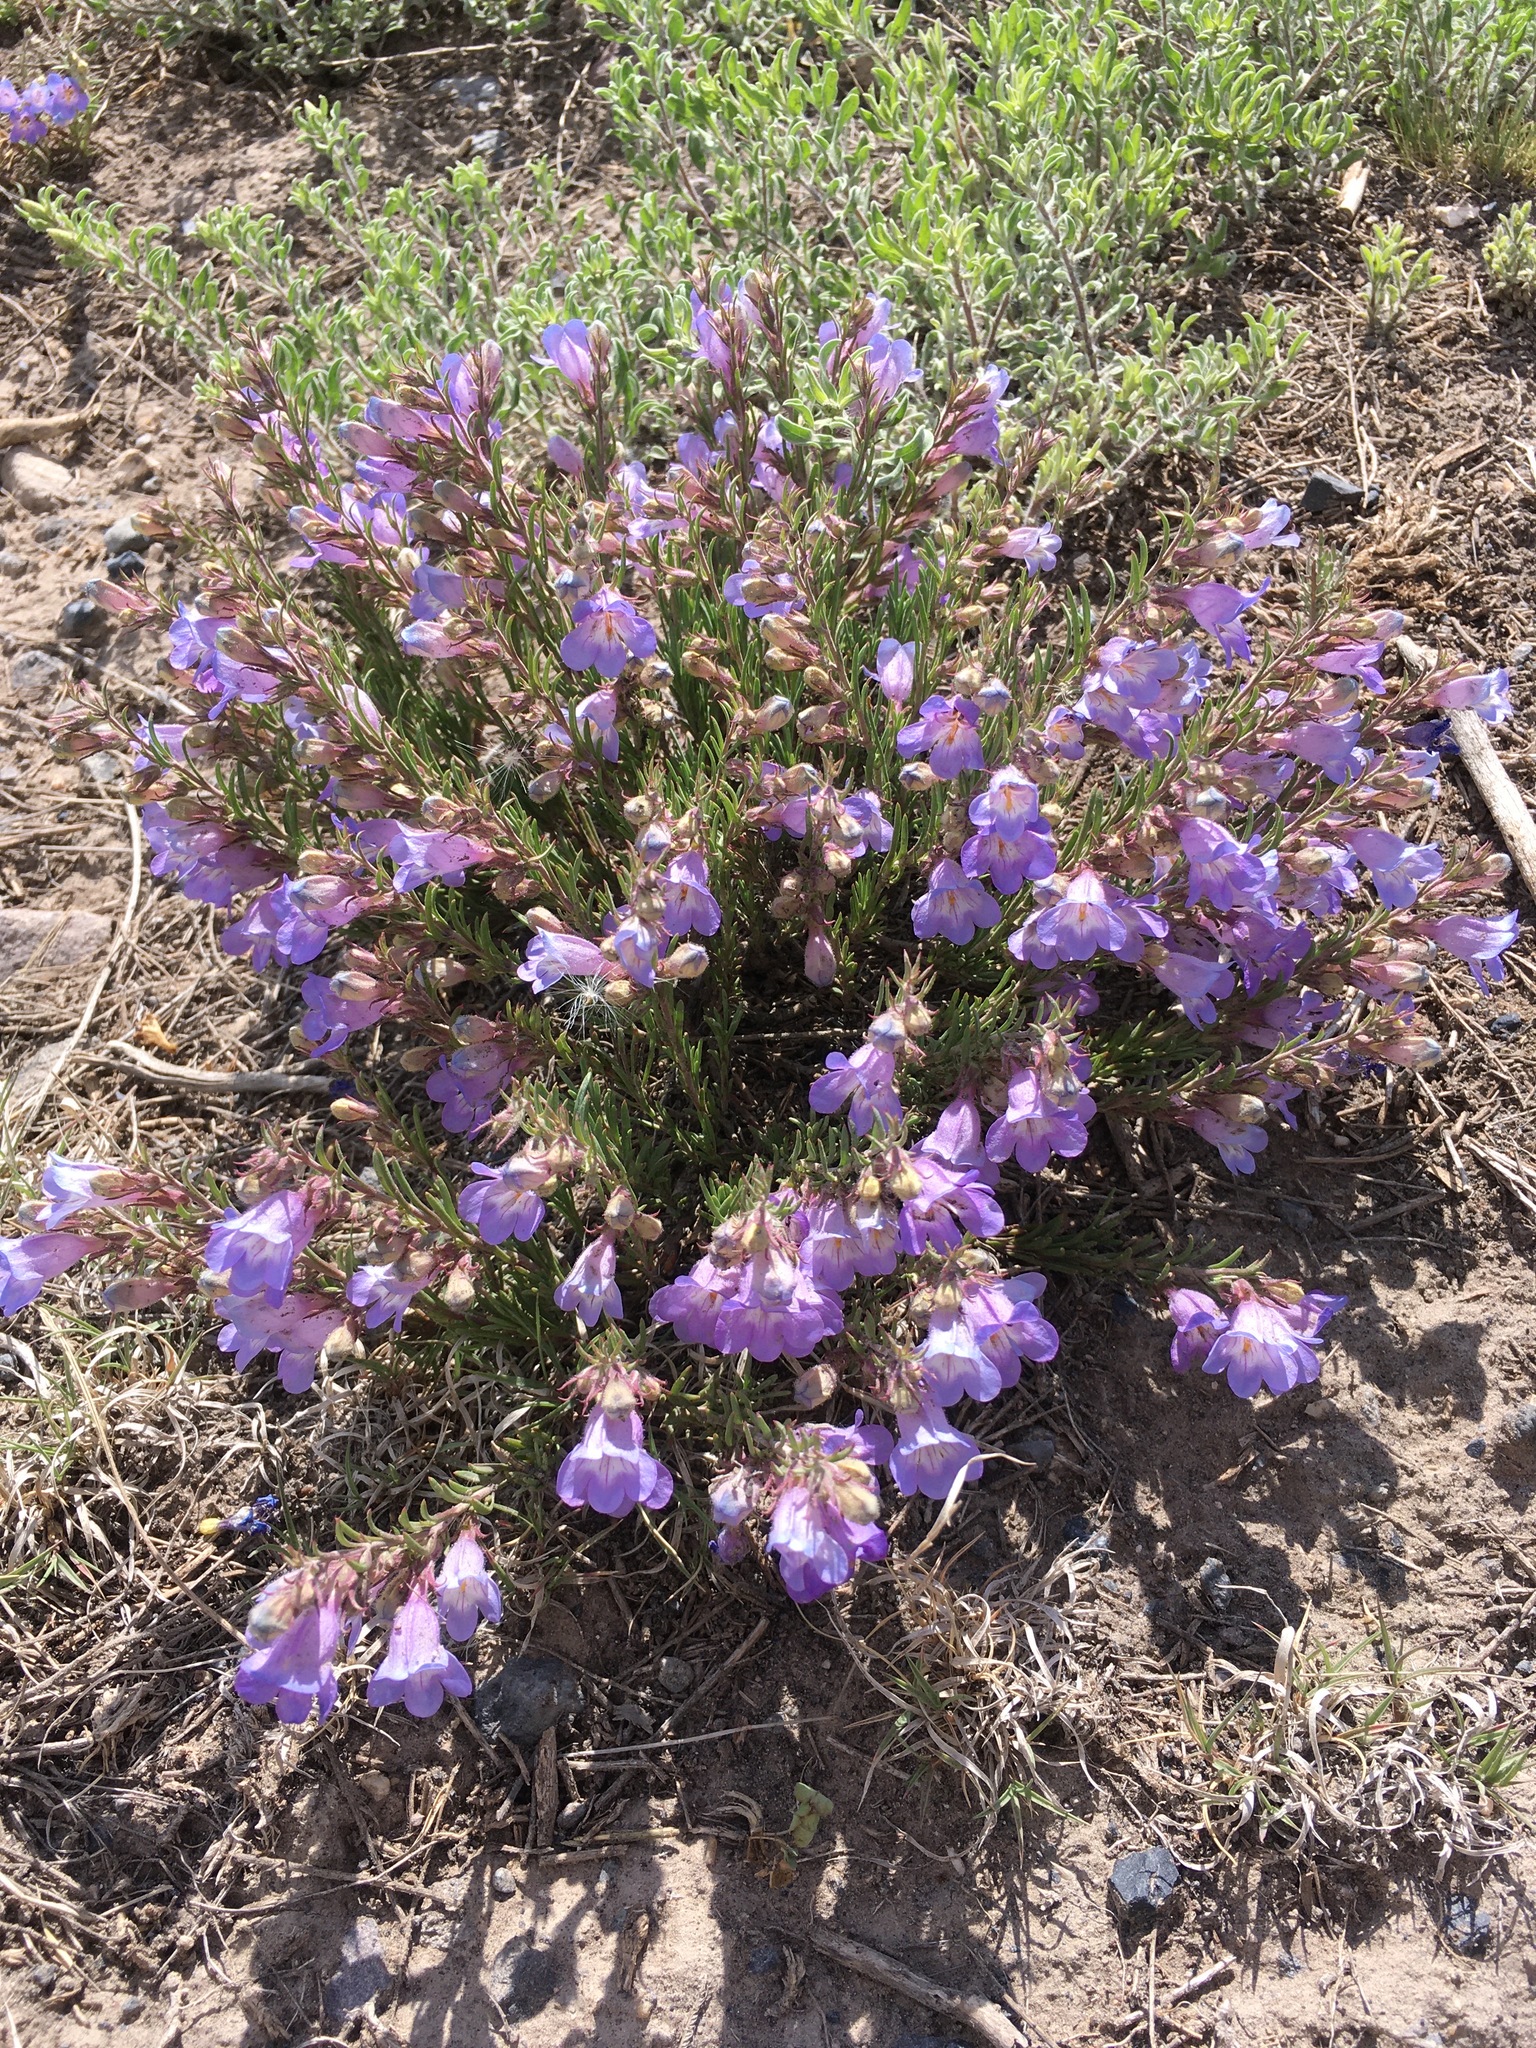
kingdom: Plantae
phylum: Tracheophyta
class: Magnoliopsida
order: Lamiales
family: Plantaginaceae
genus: Penstemon
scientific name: Penstemon linarioides
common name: Siler's penstemon
